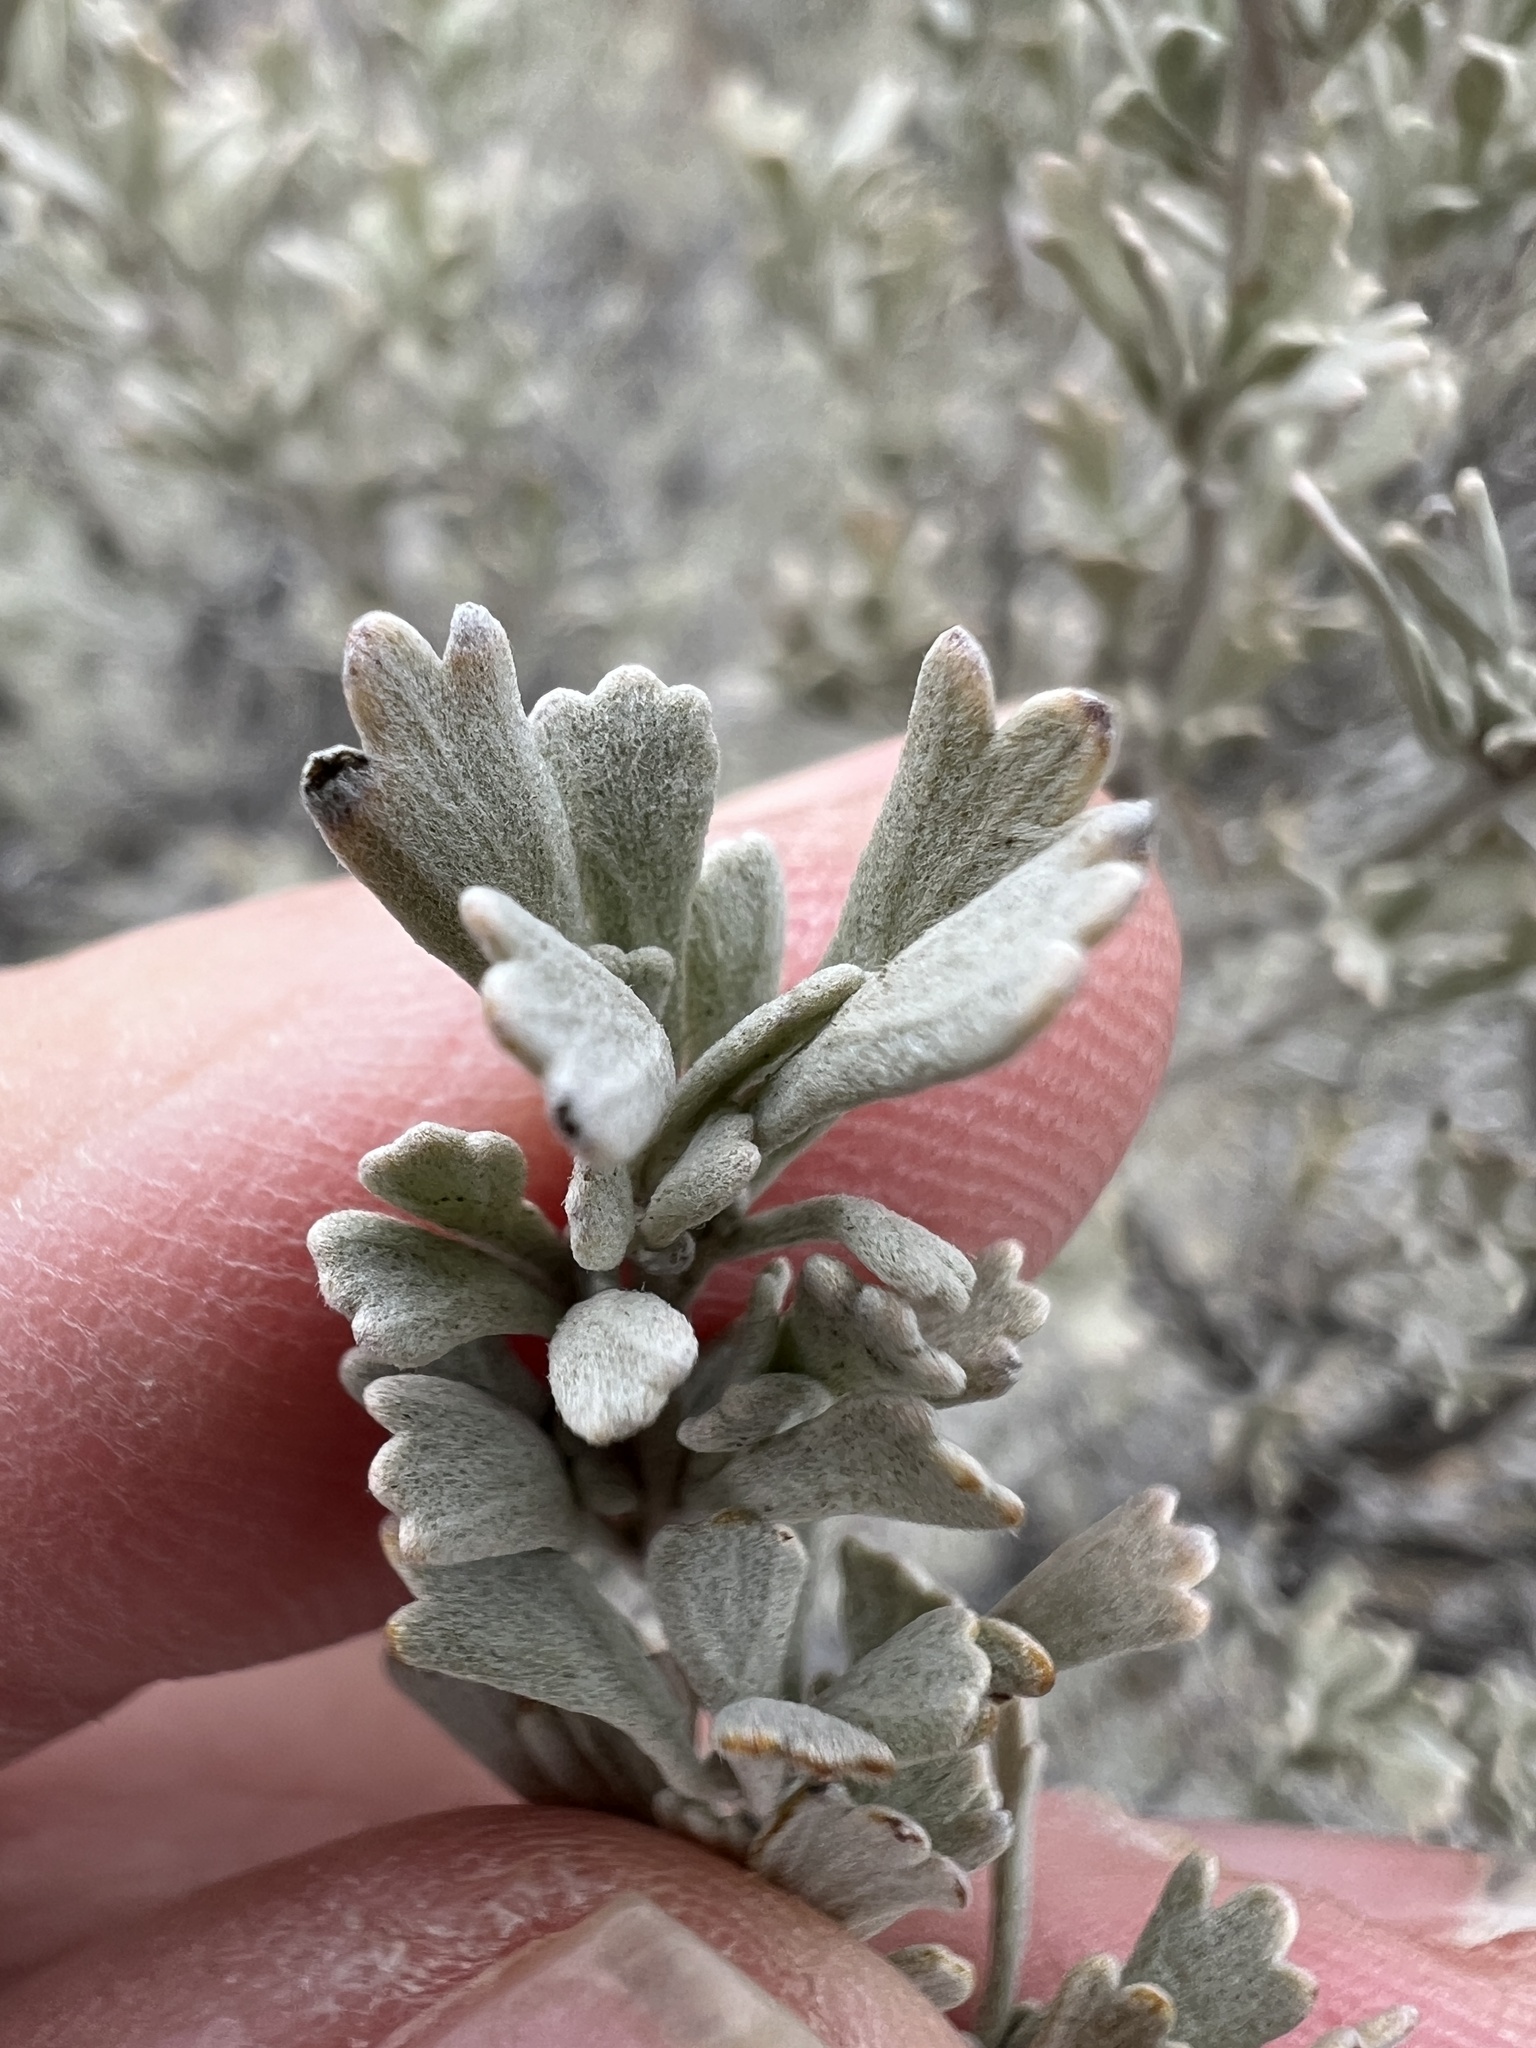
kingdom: Plantae
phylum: Tracheophyta
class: Magnoliopsida
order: Asterales
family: Asteraceae
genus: Artemisia
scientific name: Artemisia tridentata
